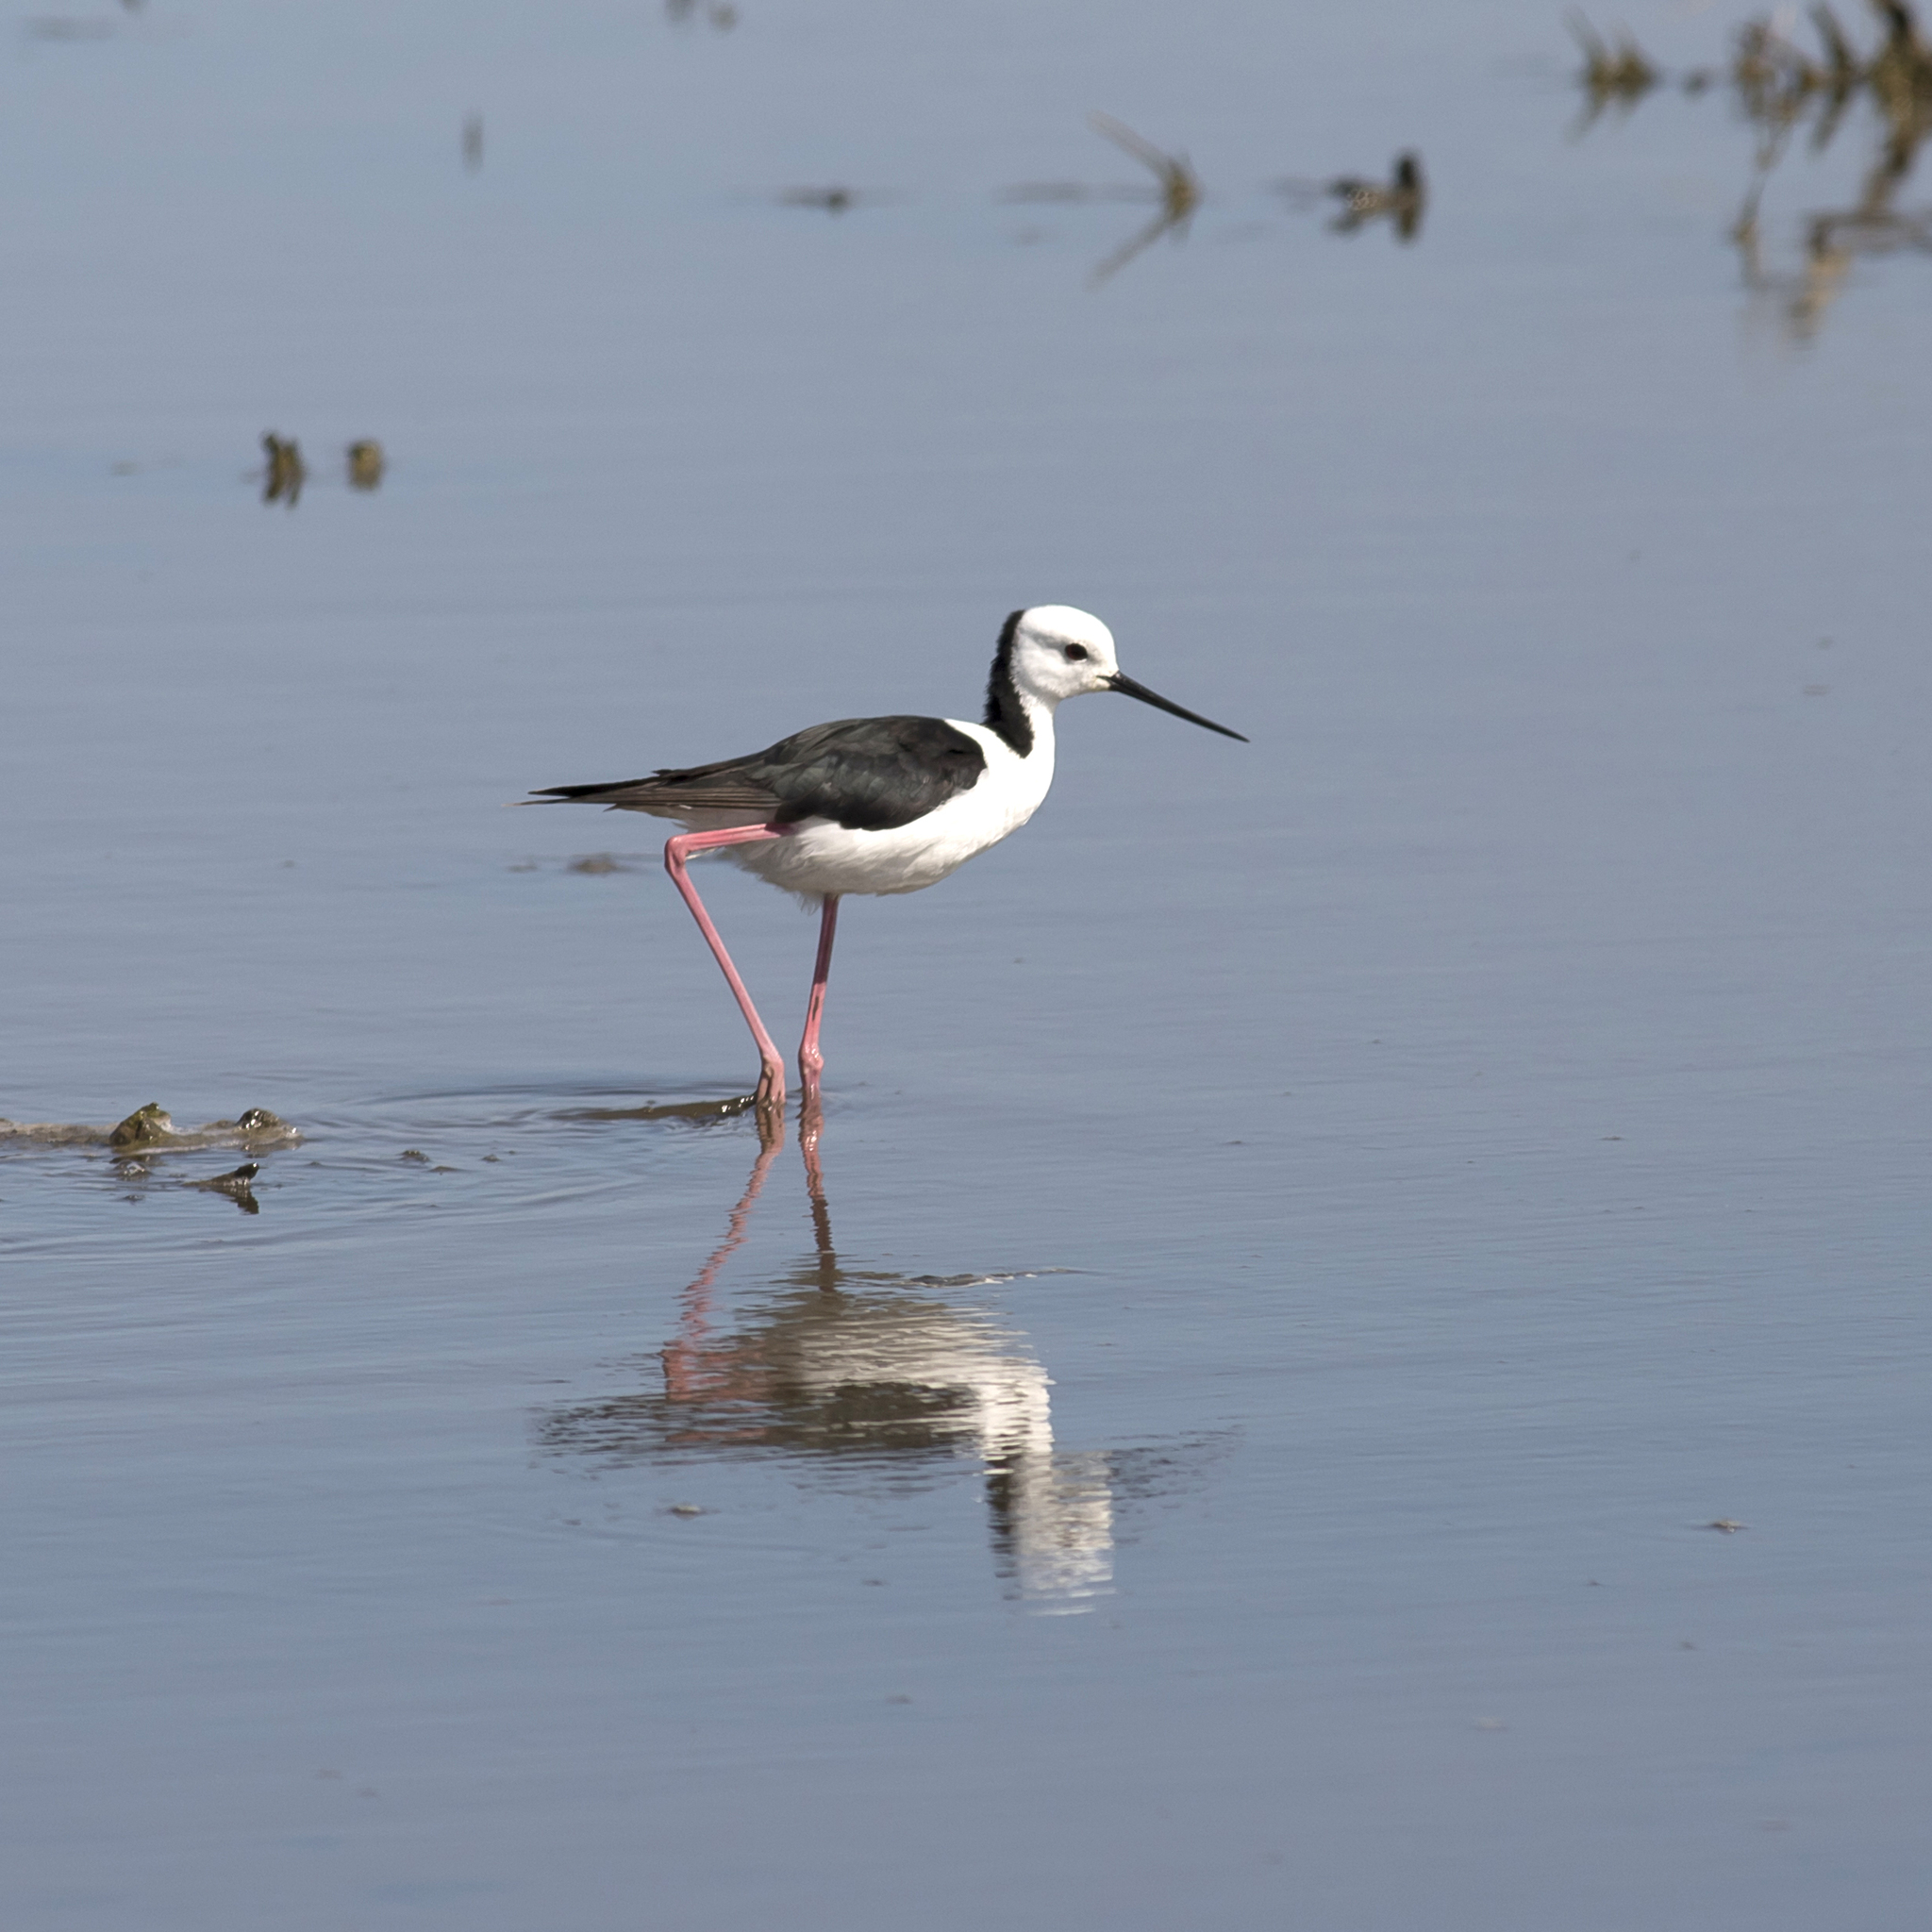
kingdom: Animalia
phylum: Chordata
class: Aves
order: Charadriiformes
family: Recurvirostridae
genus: Himantopus
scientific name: Himantopus leucocephalus
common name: White-headed stilt
